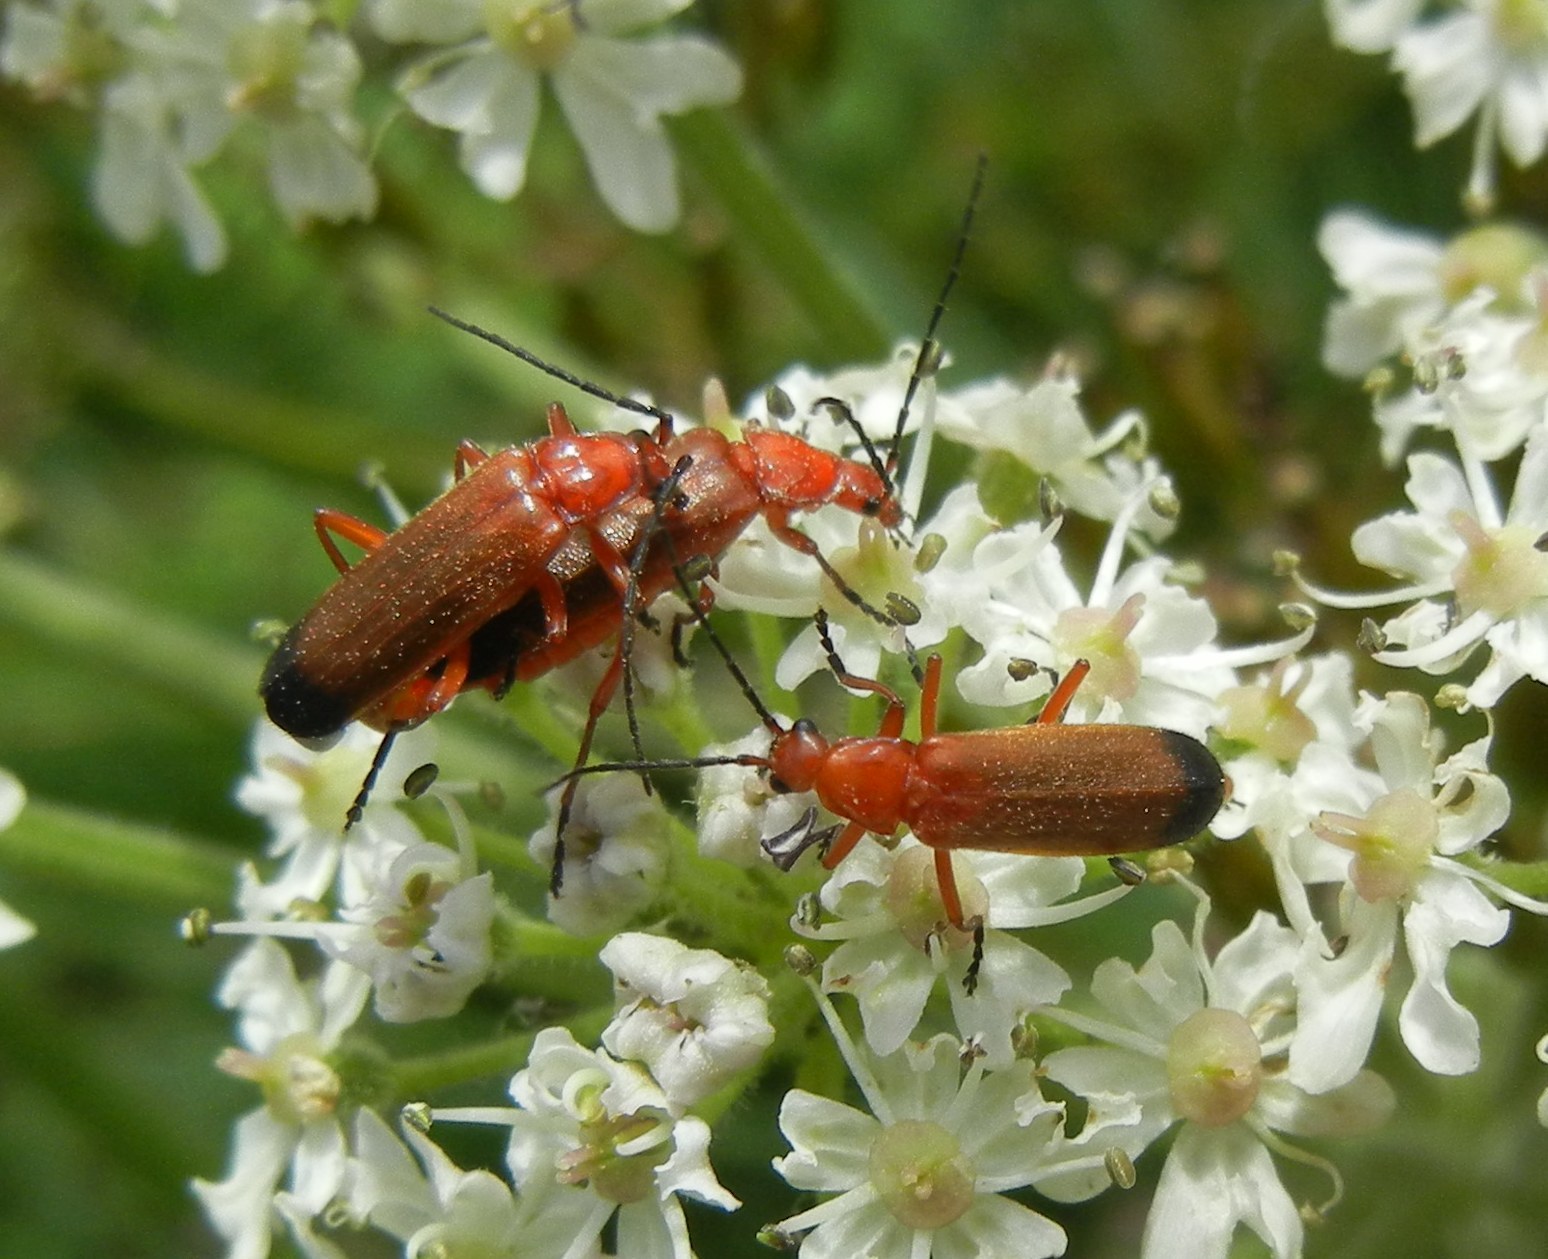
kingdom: Animalia
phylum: Arthropoda
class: Insecta
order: Coleoptera
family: Cantharidae
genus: Rhagonycha
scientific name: Rhagonycha fulva
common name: Common red soldier beetle
